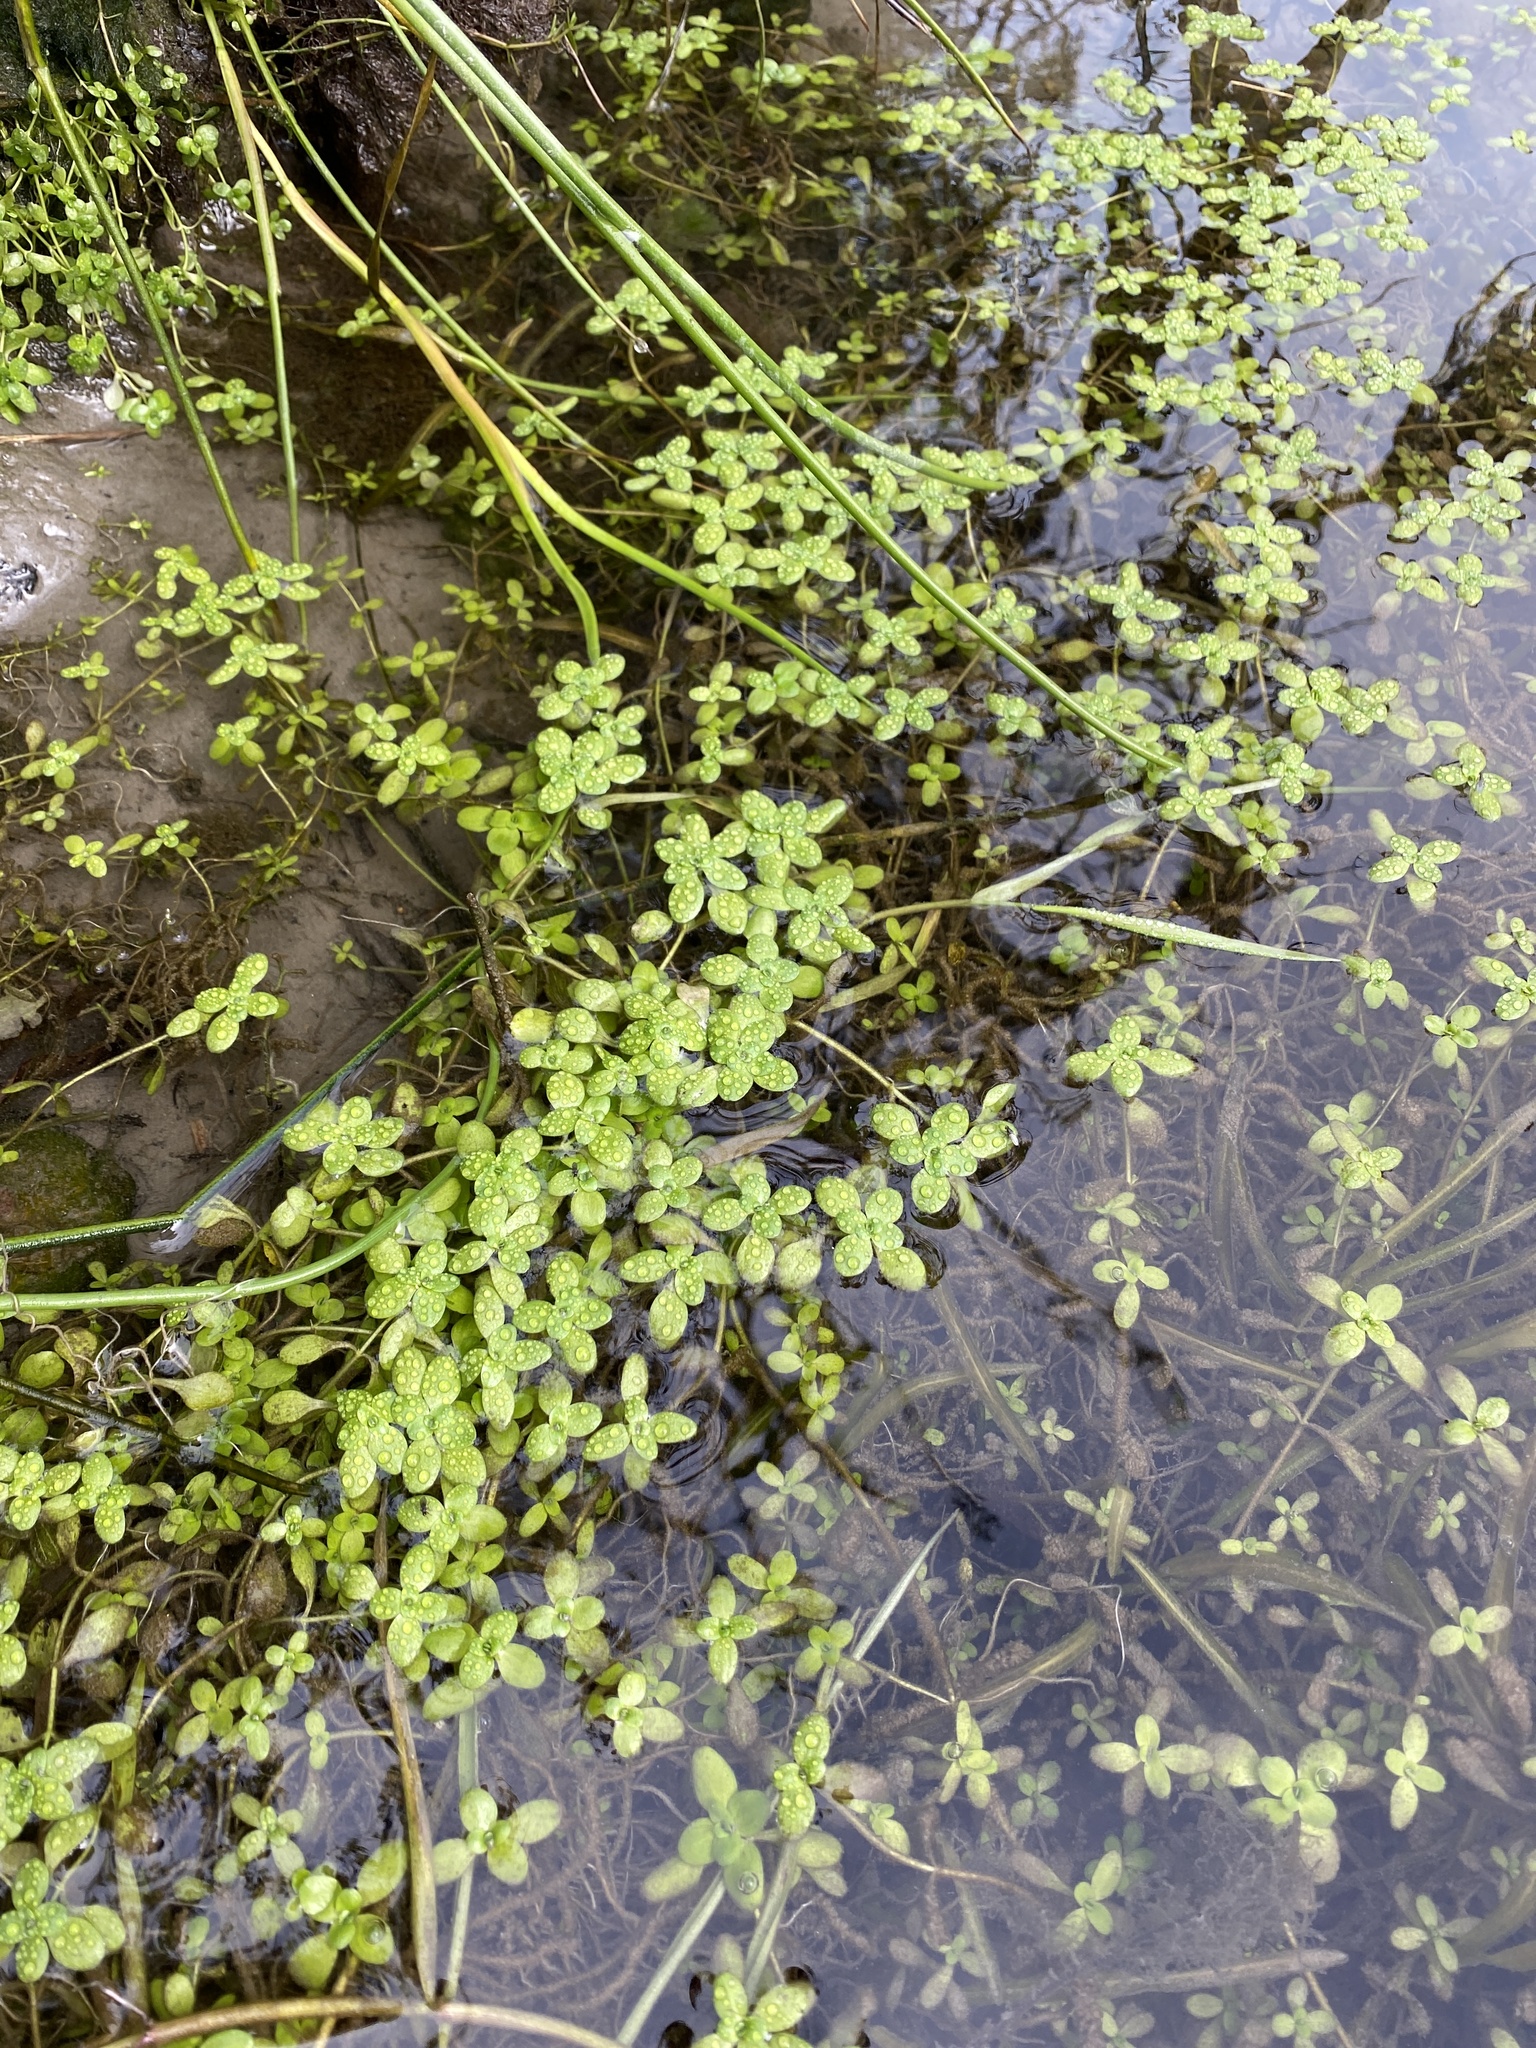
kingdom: Plantae
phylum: Tracheophyta
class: Magnoliopsida
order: Lamiales
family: Plantaginaceae
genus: Callitriche
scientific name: Callitriche stagnalis
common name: Common water-starwort
